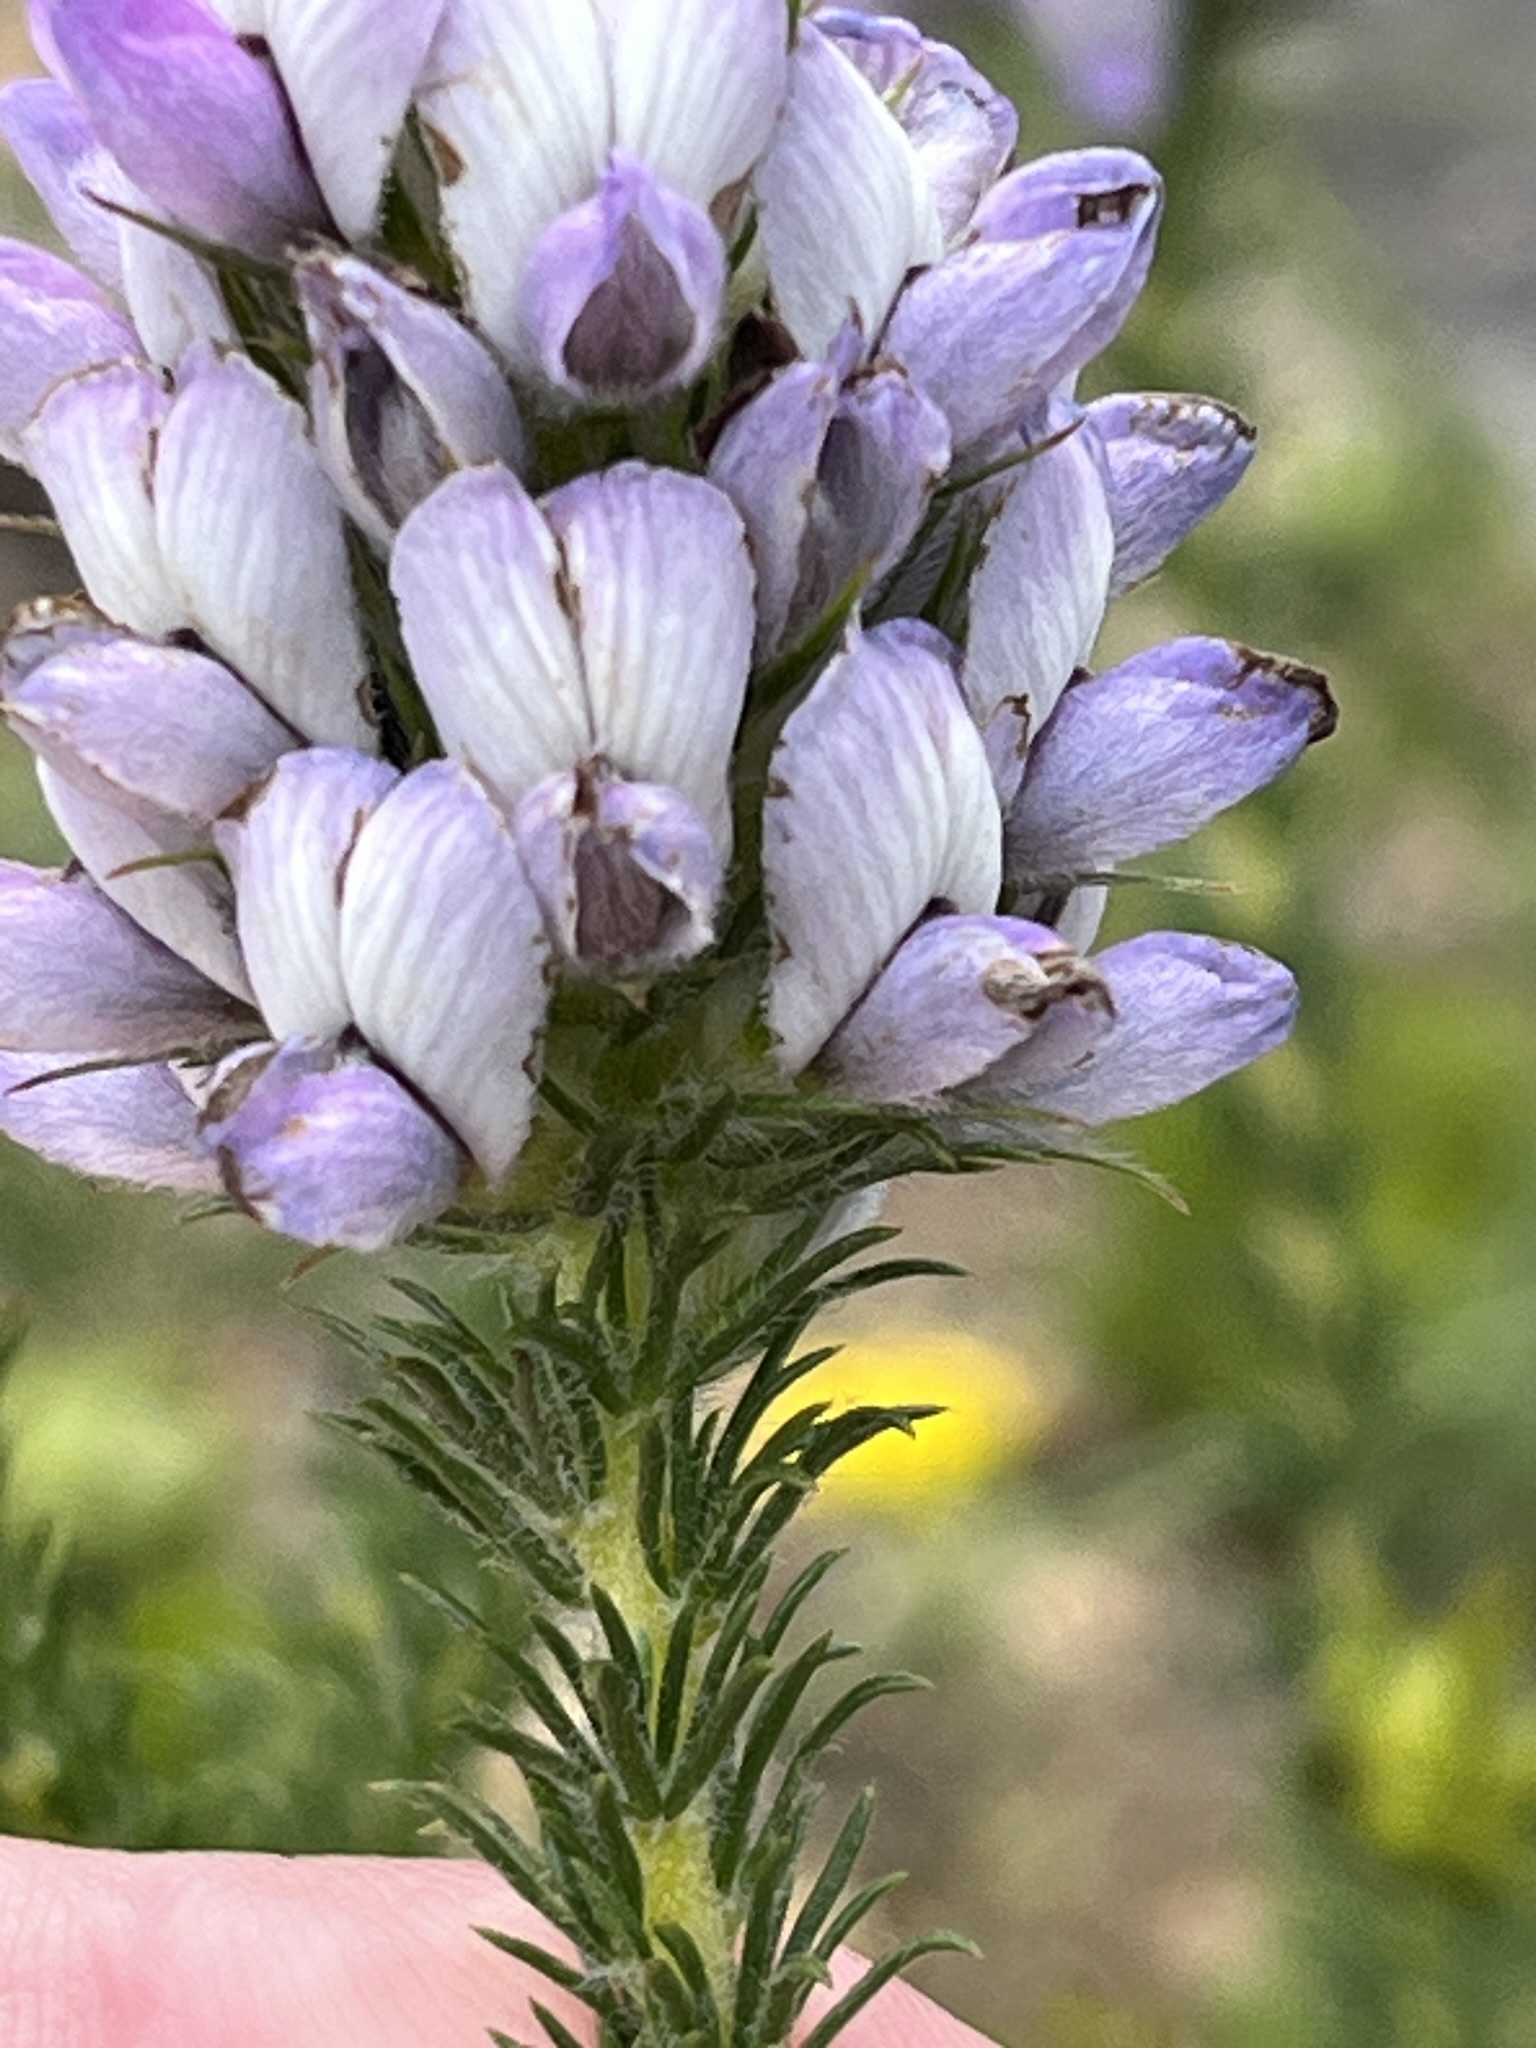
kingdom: Plantae
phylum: Tracheophyta
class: Magnoliopsida
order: Fabales
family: Fabaceae
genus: Aspalathus
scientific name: Aspalathus cephalotes
